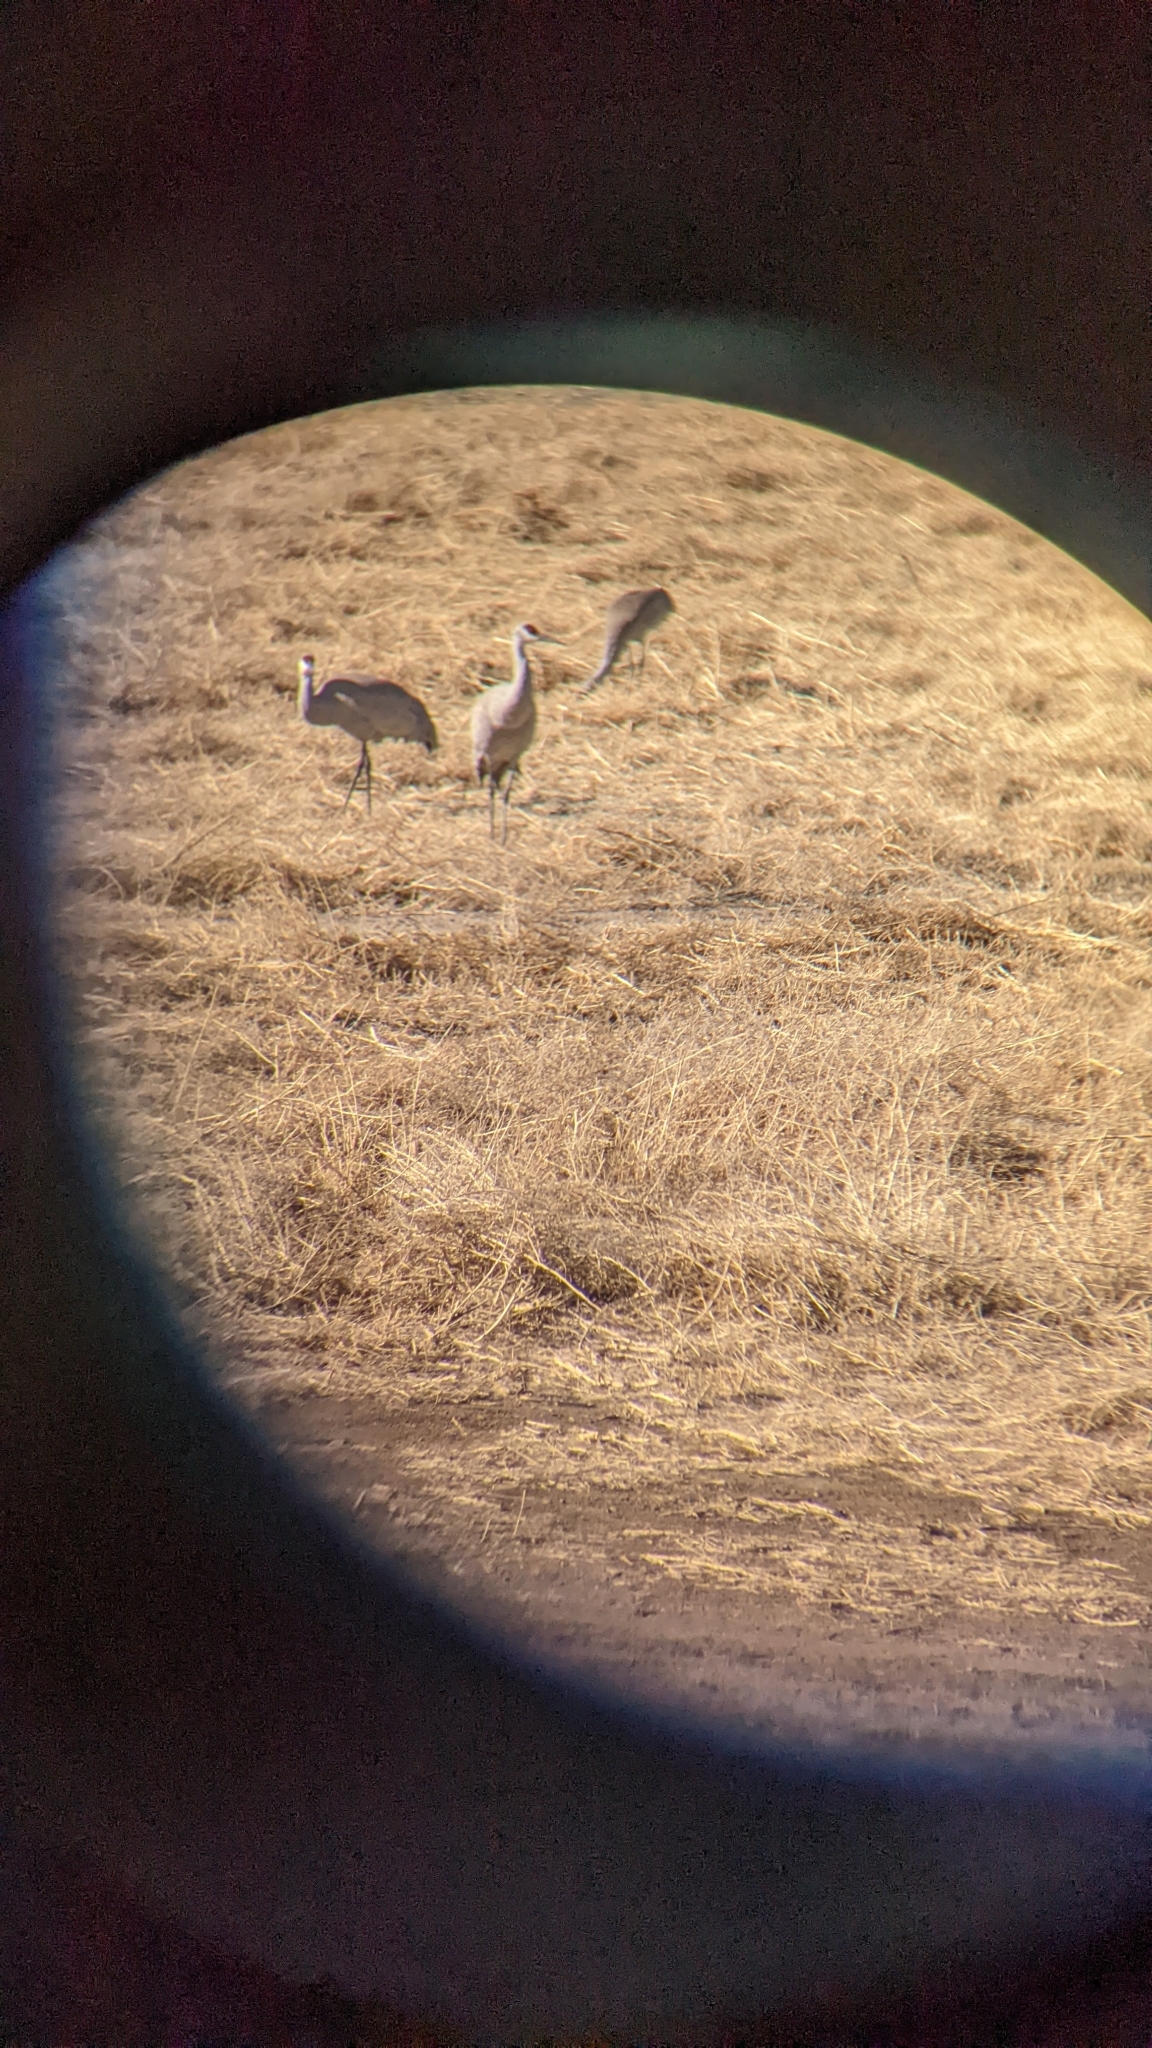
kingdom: Animalia
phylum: Chordata
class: Aves
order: Gruiformes
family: Gruidae
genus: Grus
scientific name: Grus canadensis
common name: Sandhill crane
